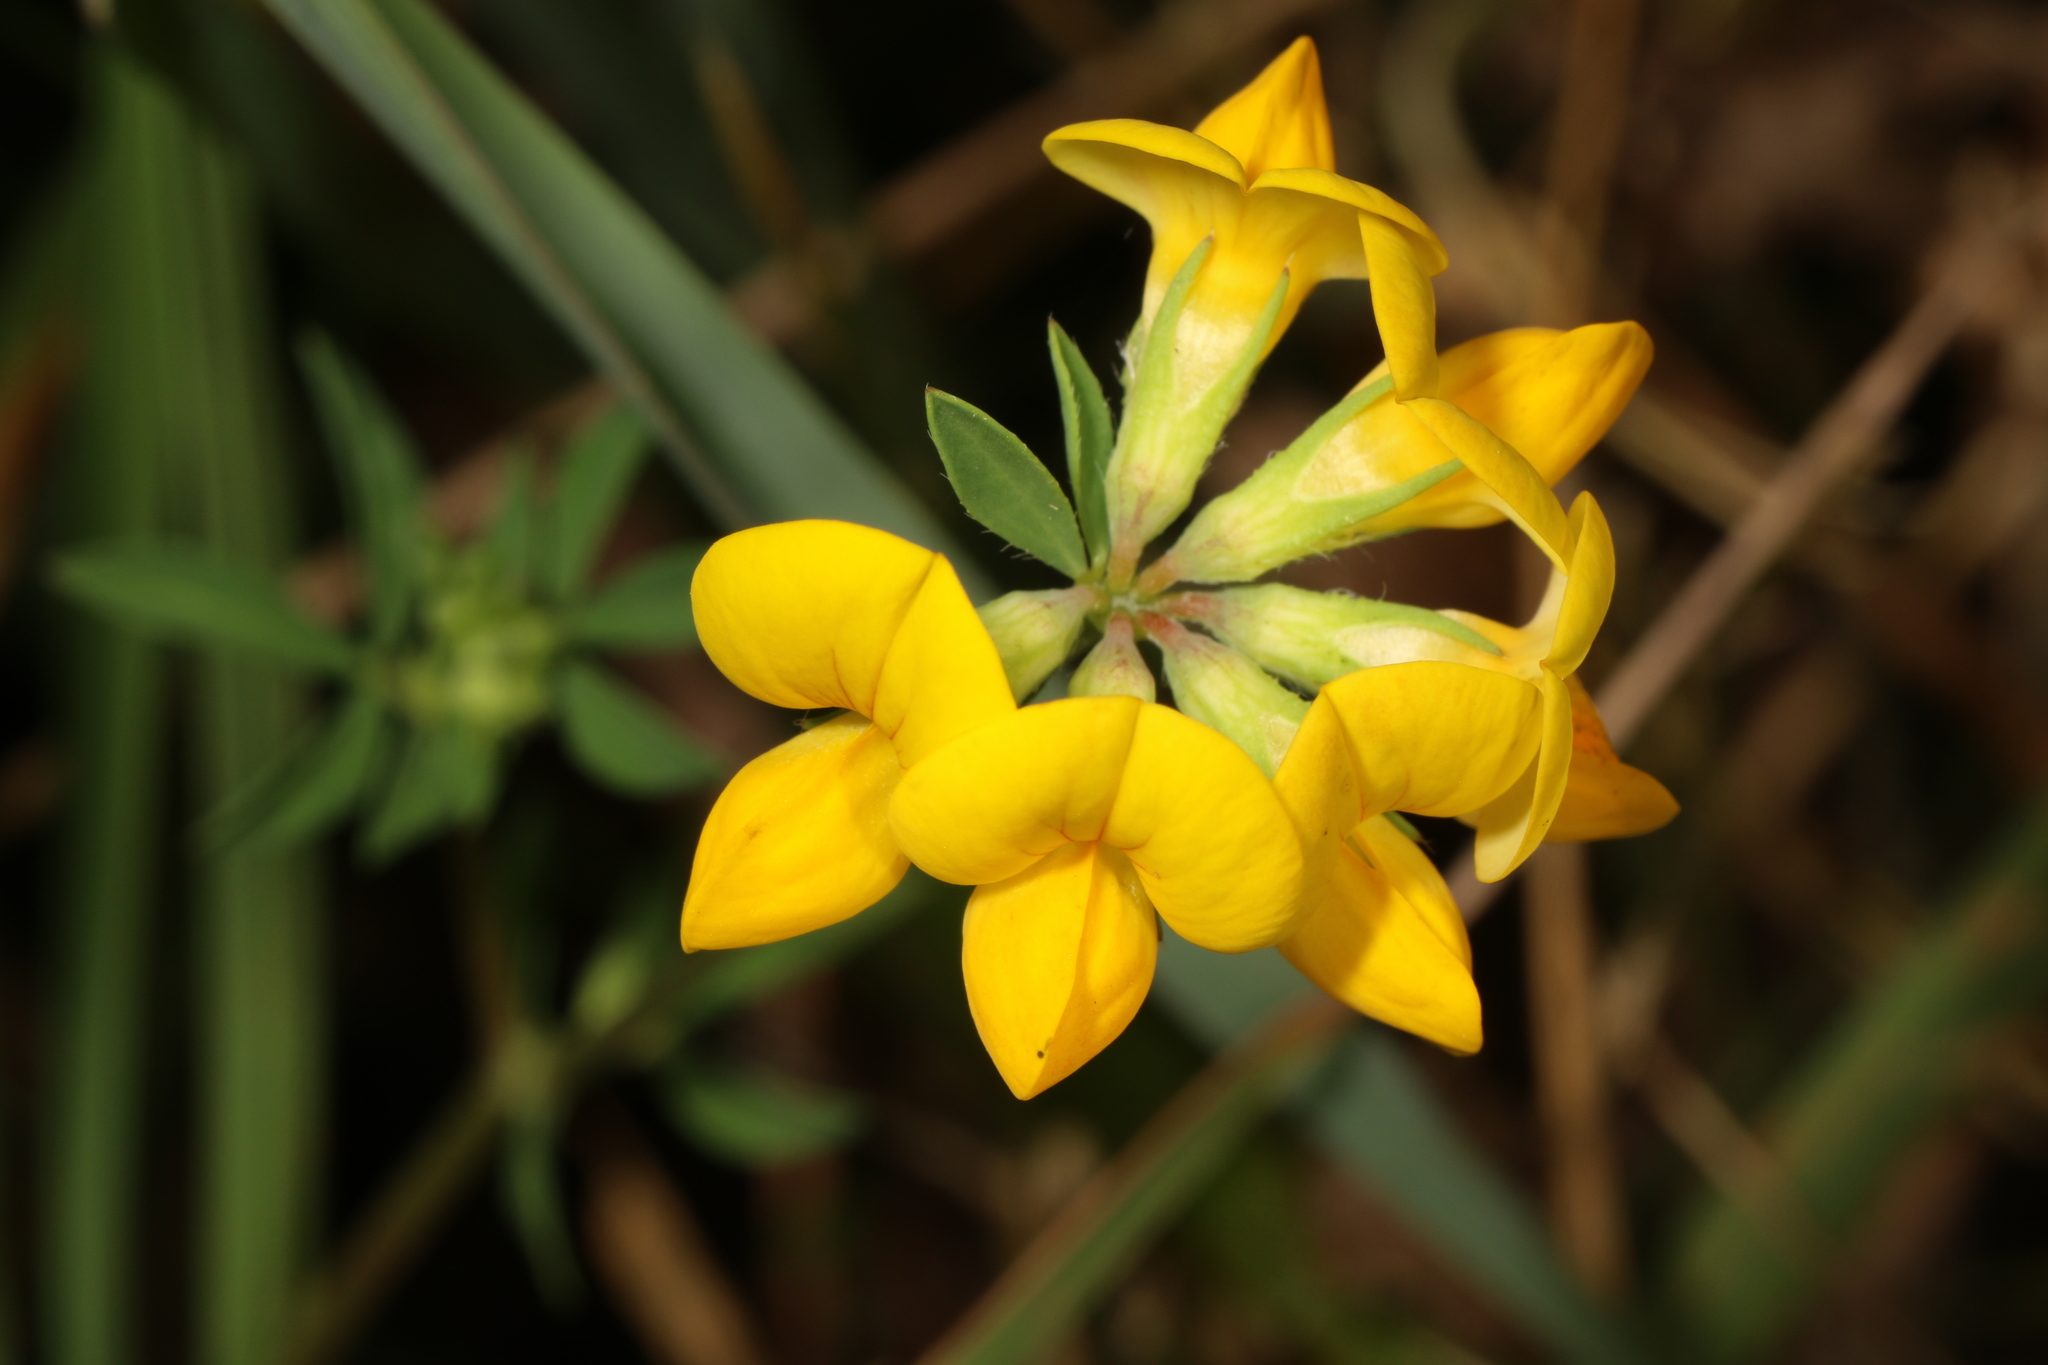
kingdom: Plantae
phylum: Tracheophyta
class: Magnoliopsida
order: Fabales
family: Fabaceae
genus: Lotus
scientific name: Lotus corniculatus
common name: Common bird's-foot-trefoil
